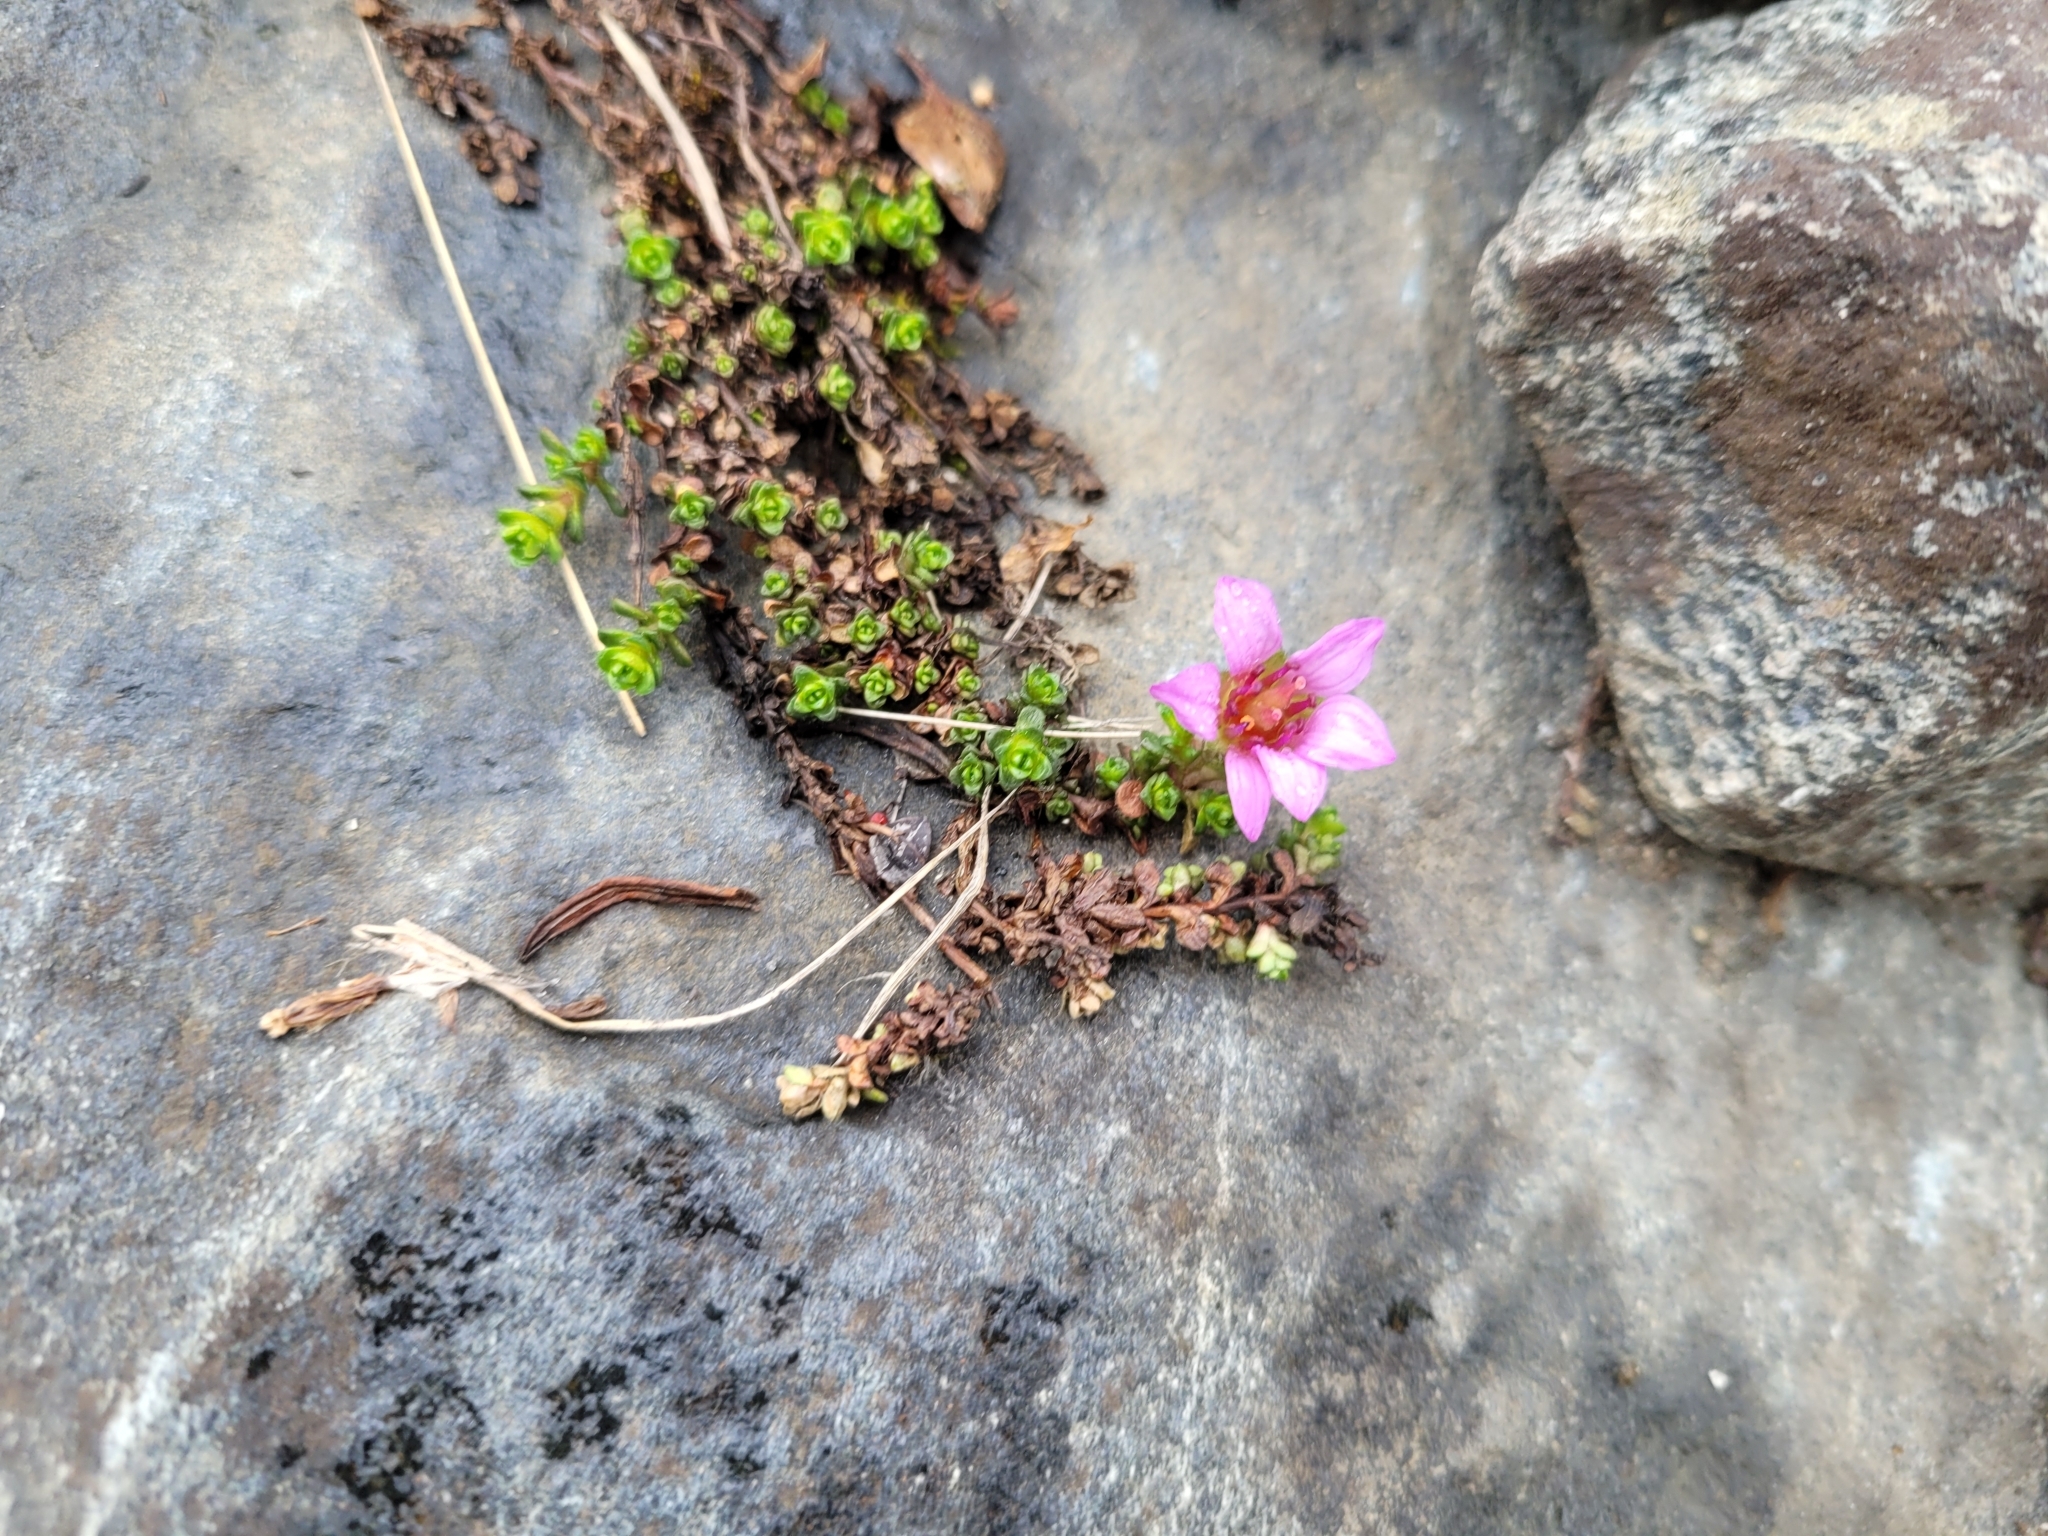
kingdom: Plantae
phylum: Tracheophyta
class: Magnoliopsida
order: Saxifragales
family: Saxifragaceae
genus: Saxifraga
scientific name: Saxifraga oppositifolia
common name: Purple saxifrage
